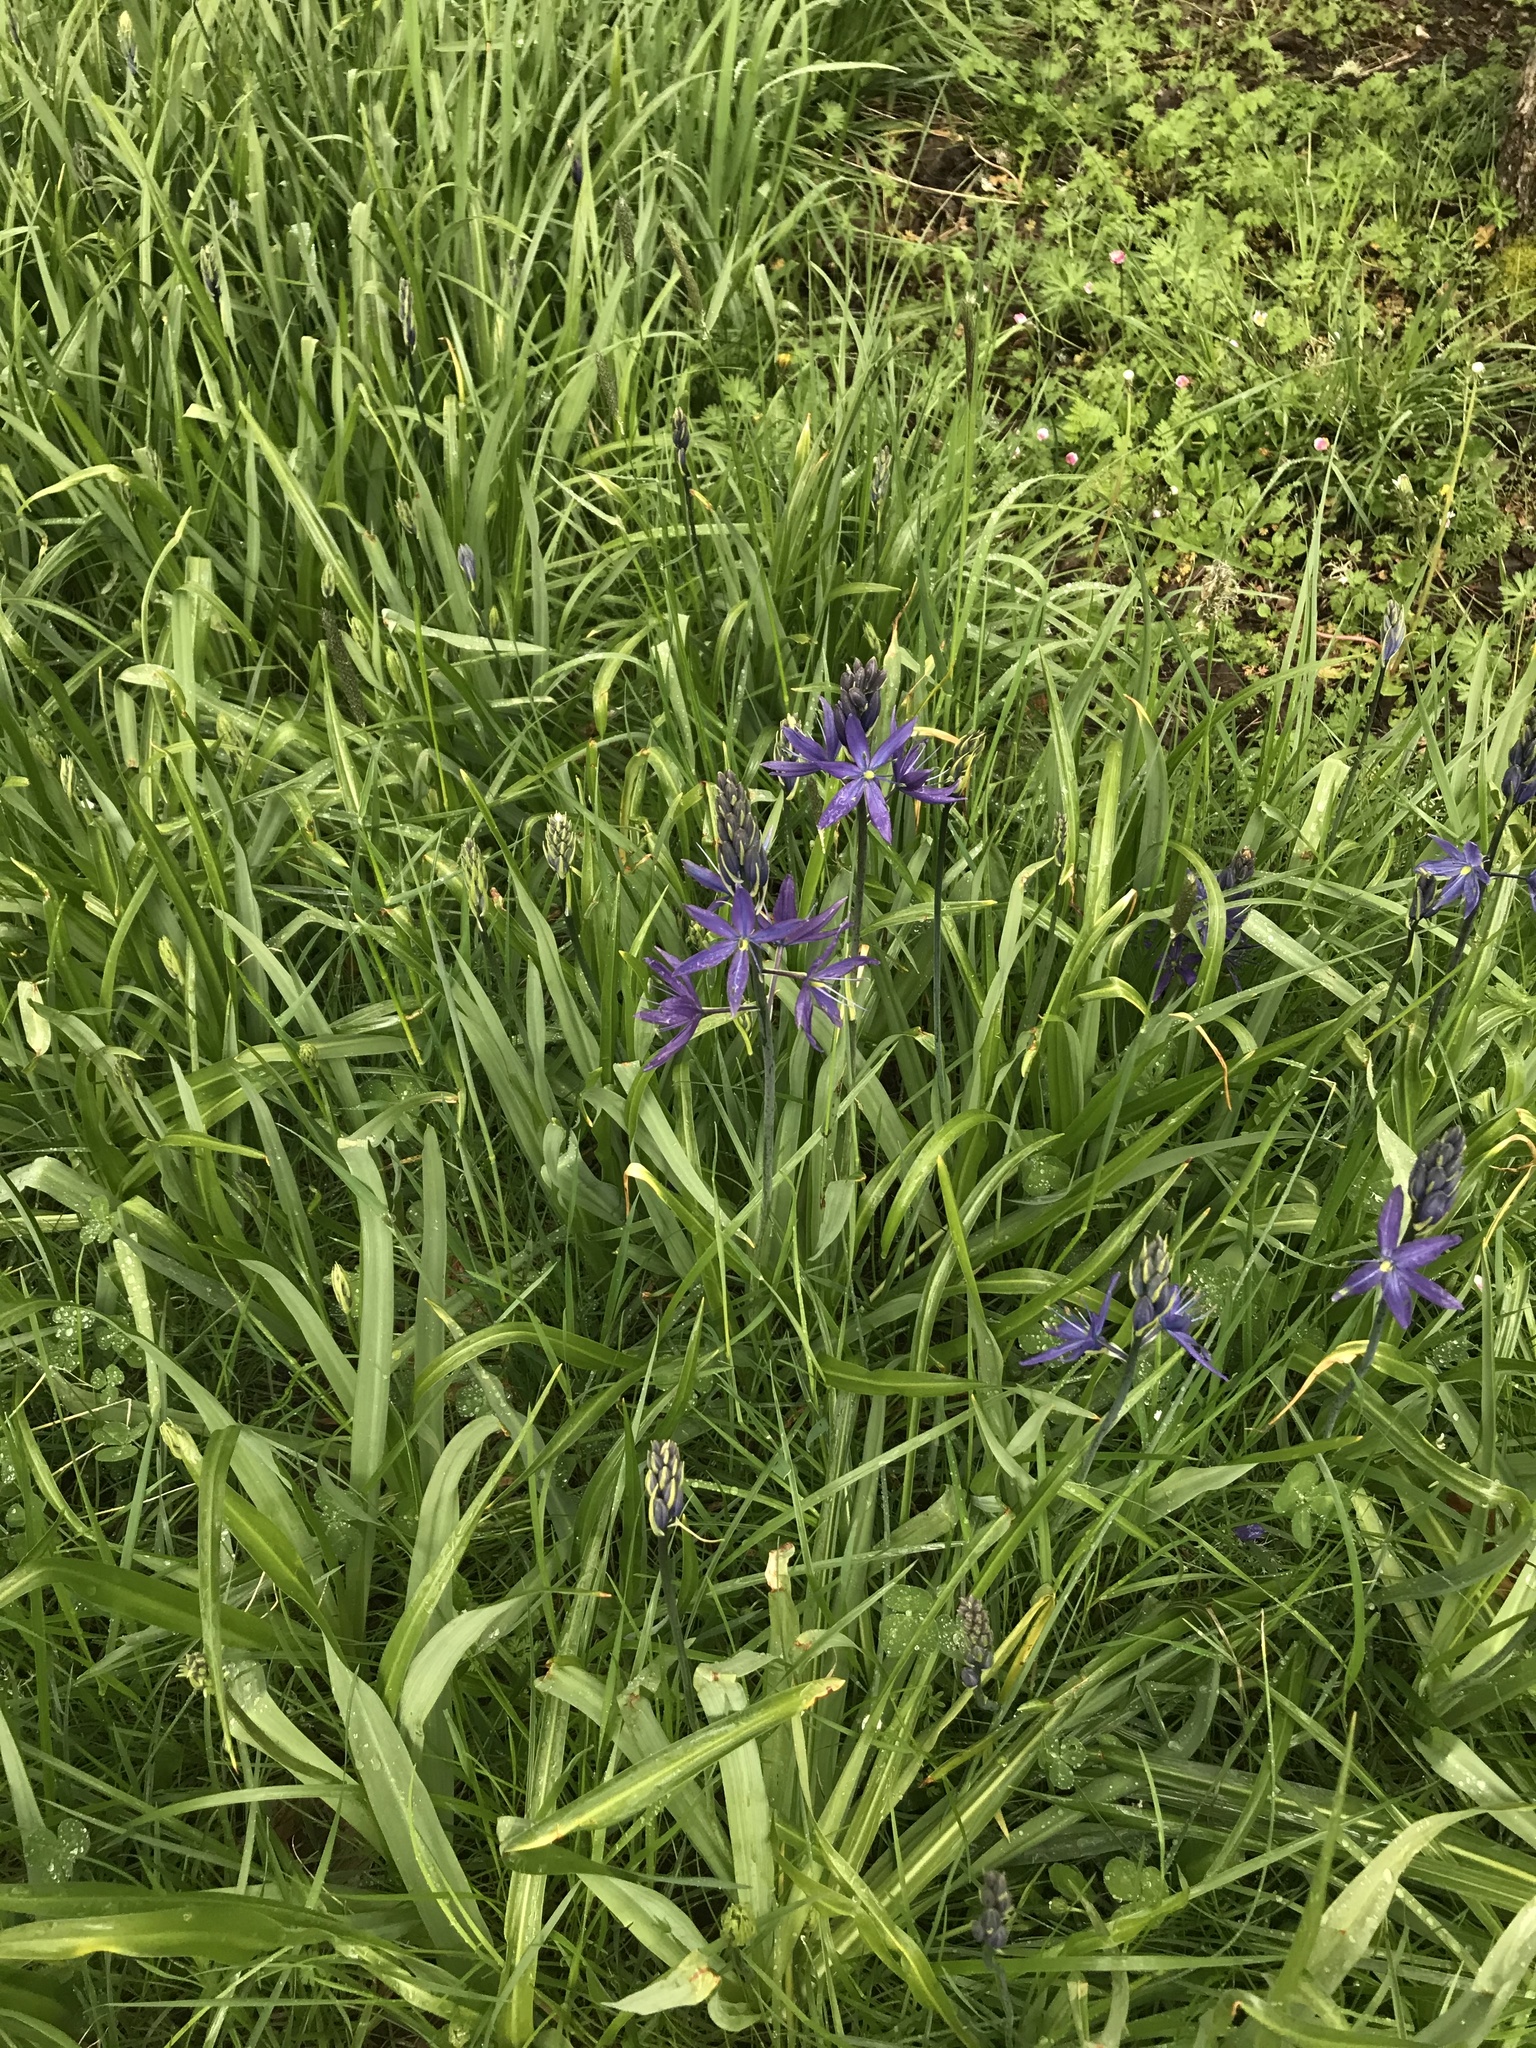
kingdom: Plantae
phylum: Tracheophyta
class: Liliopsida
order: Asparagales
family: Asparagaceae
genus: Camassia
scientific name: Camassia leichtlinii
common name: Leichtlin's camas
